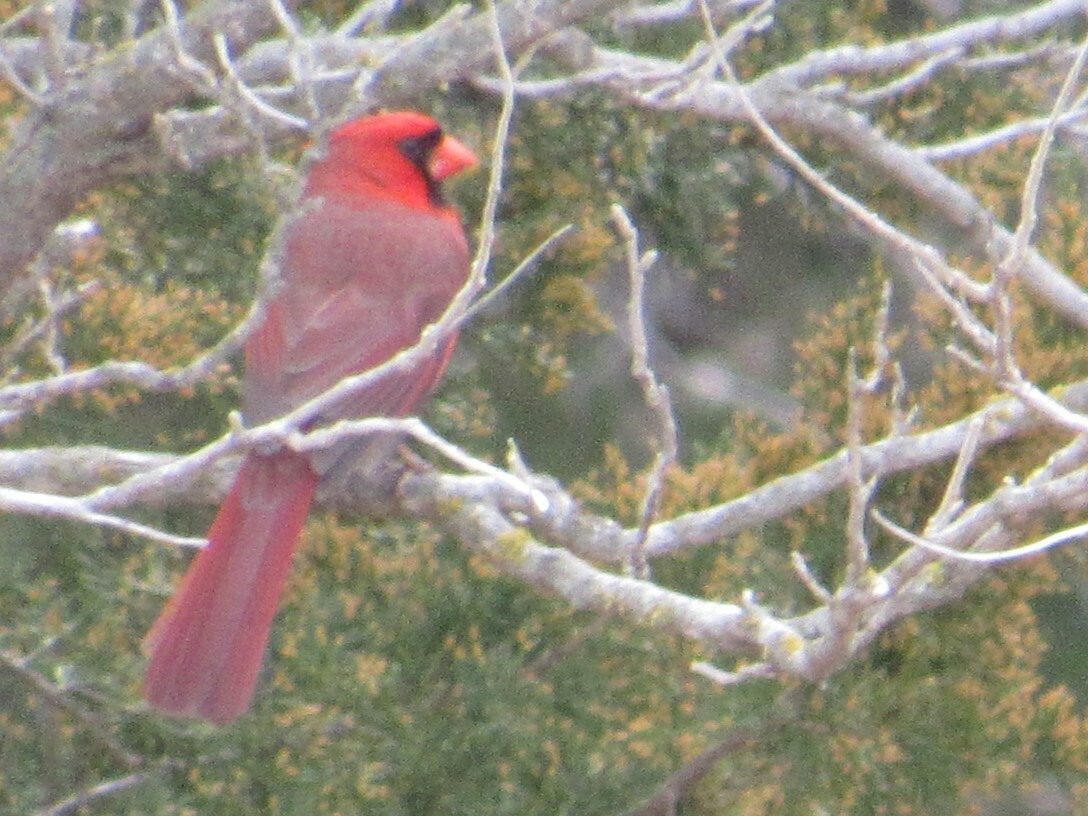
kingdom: Animalia
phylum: Chordata
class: Aves
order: Passeriformes
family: Cardinalidae
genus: Cardinalis
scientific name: Cardinalis cardinalis
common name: Northern cardinal
